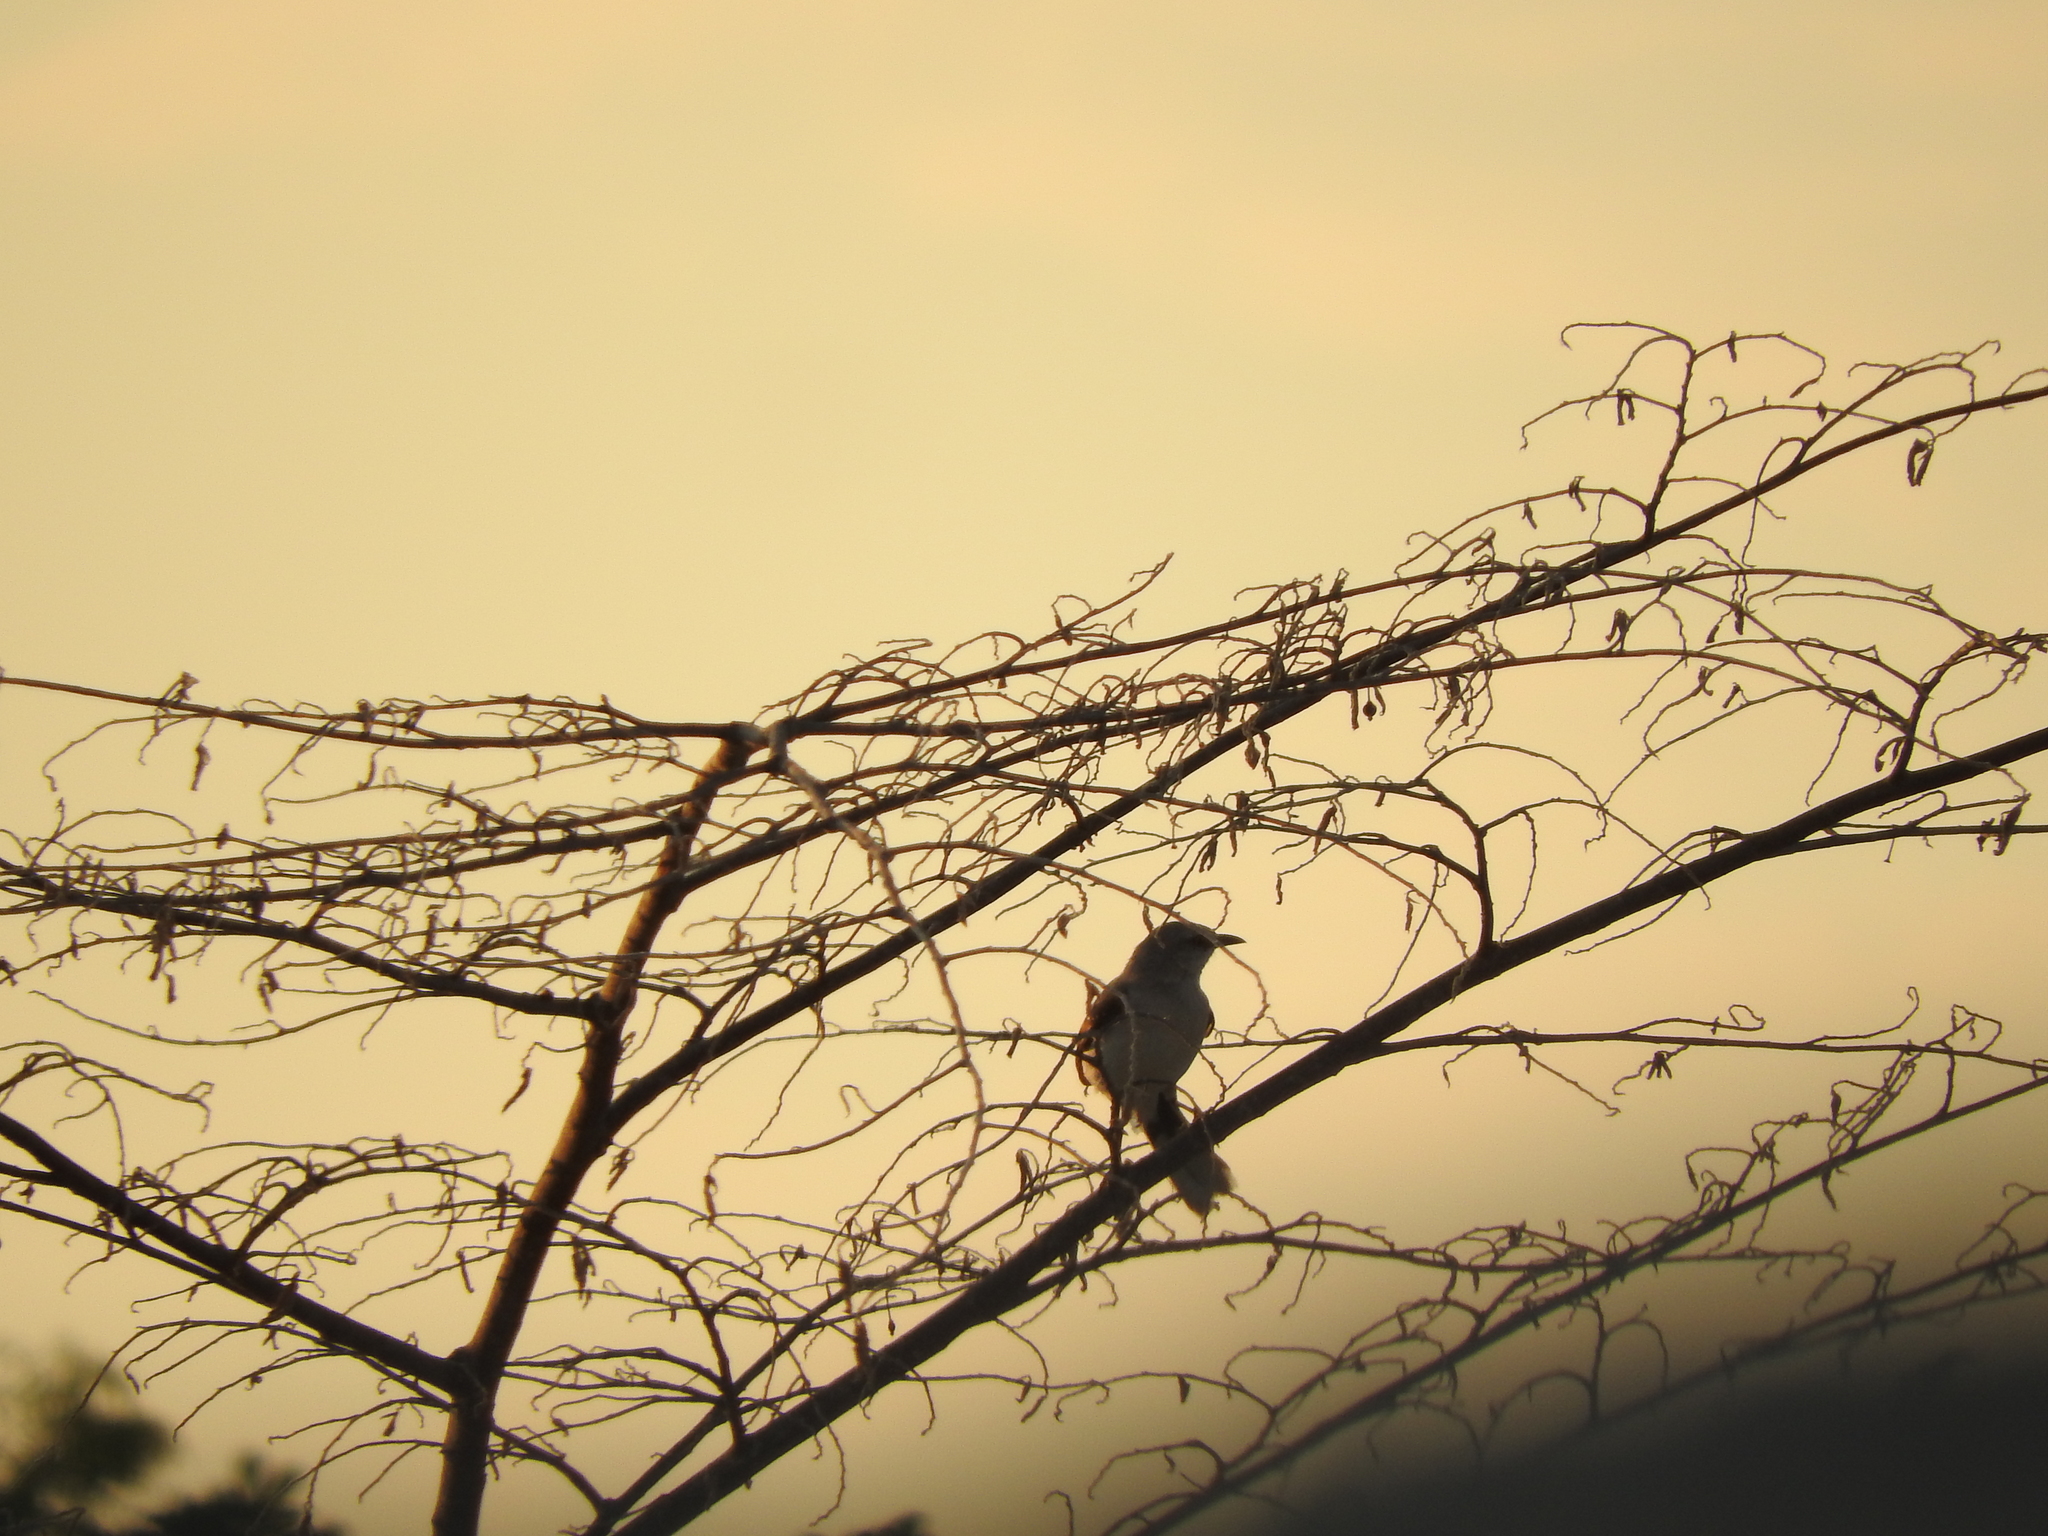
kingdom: Animalia
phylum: Chordata
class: Aves
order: Passeriformes
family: Mimidae
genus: Mimus
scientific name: Mimus gilvus
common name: Tropical mockingbird
